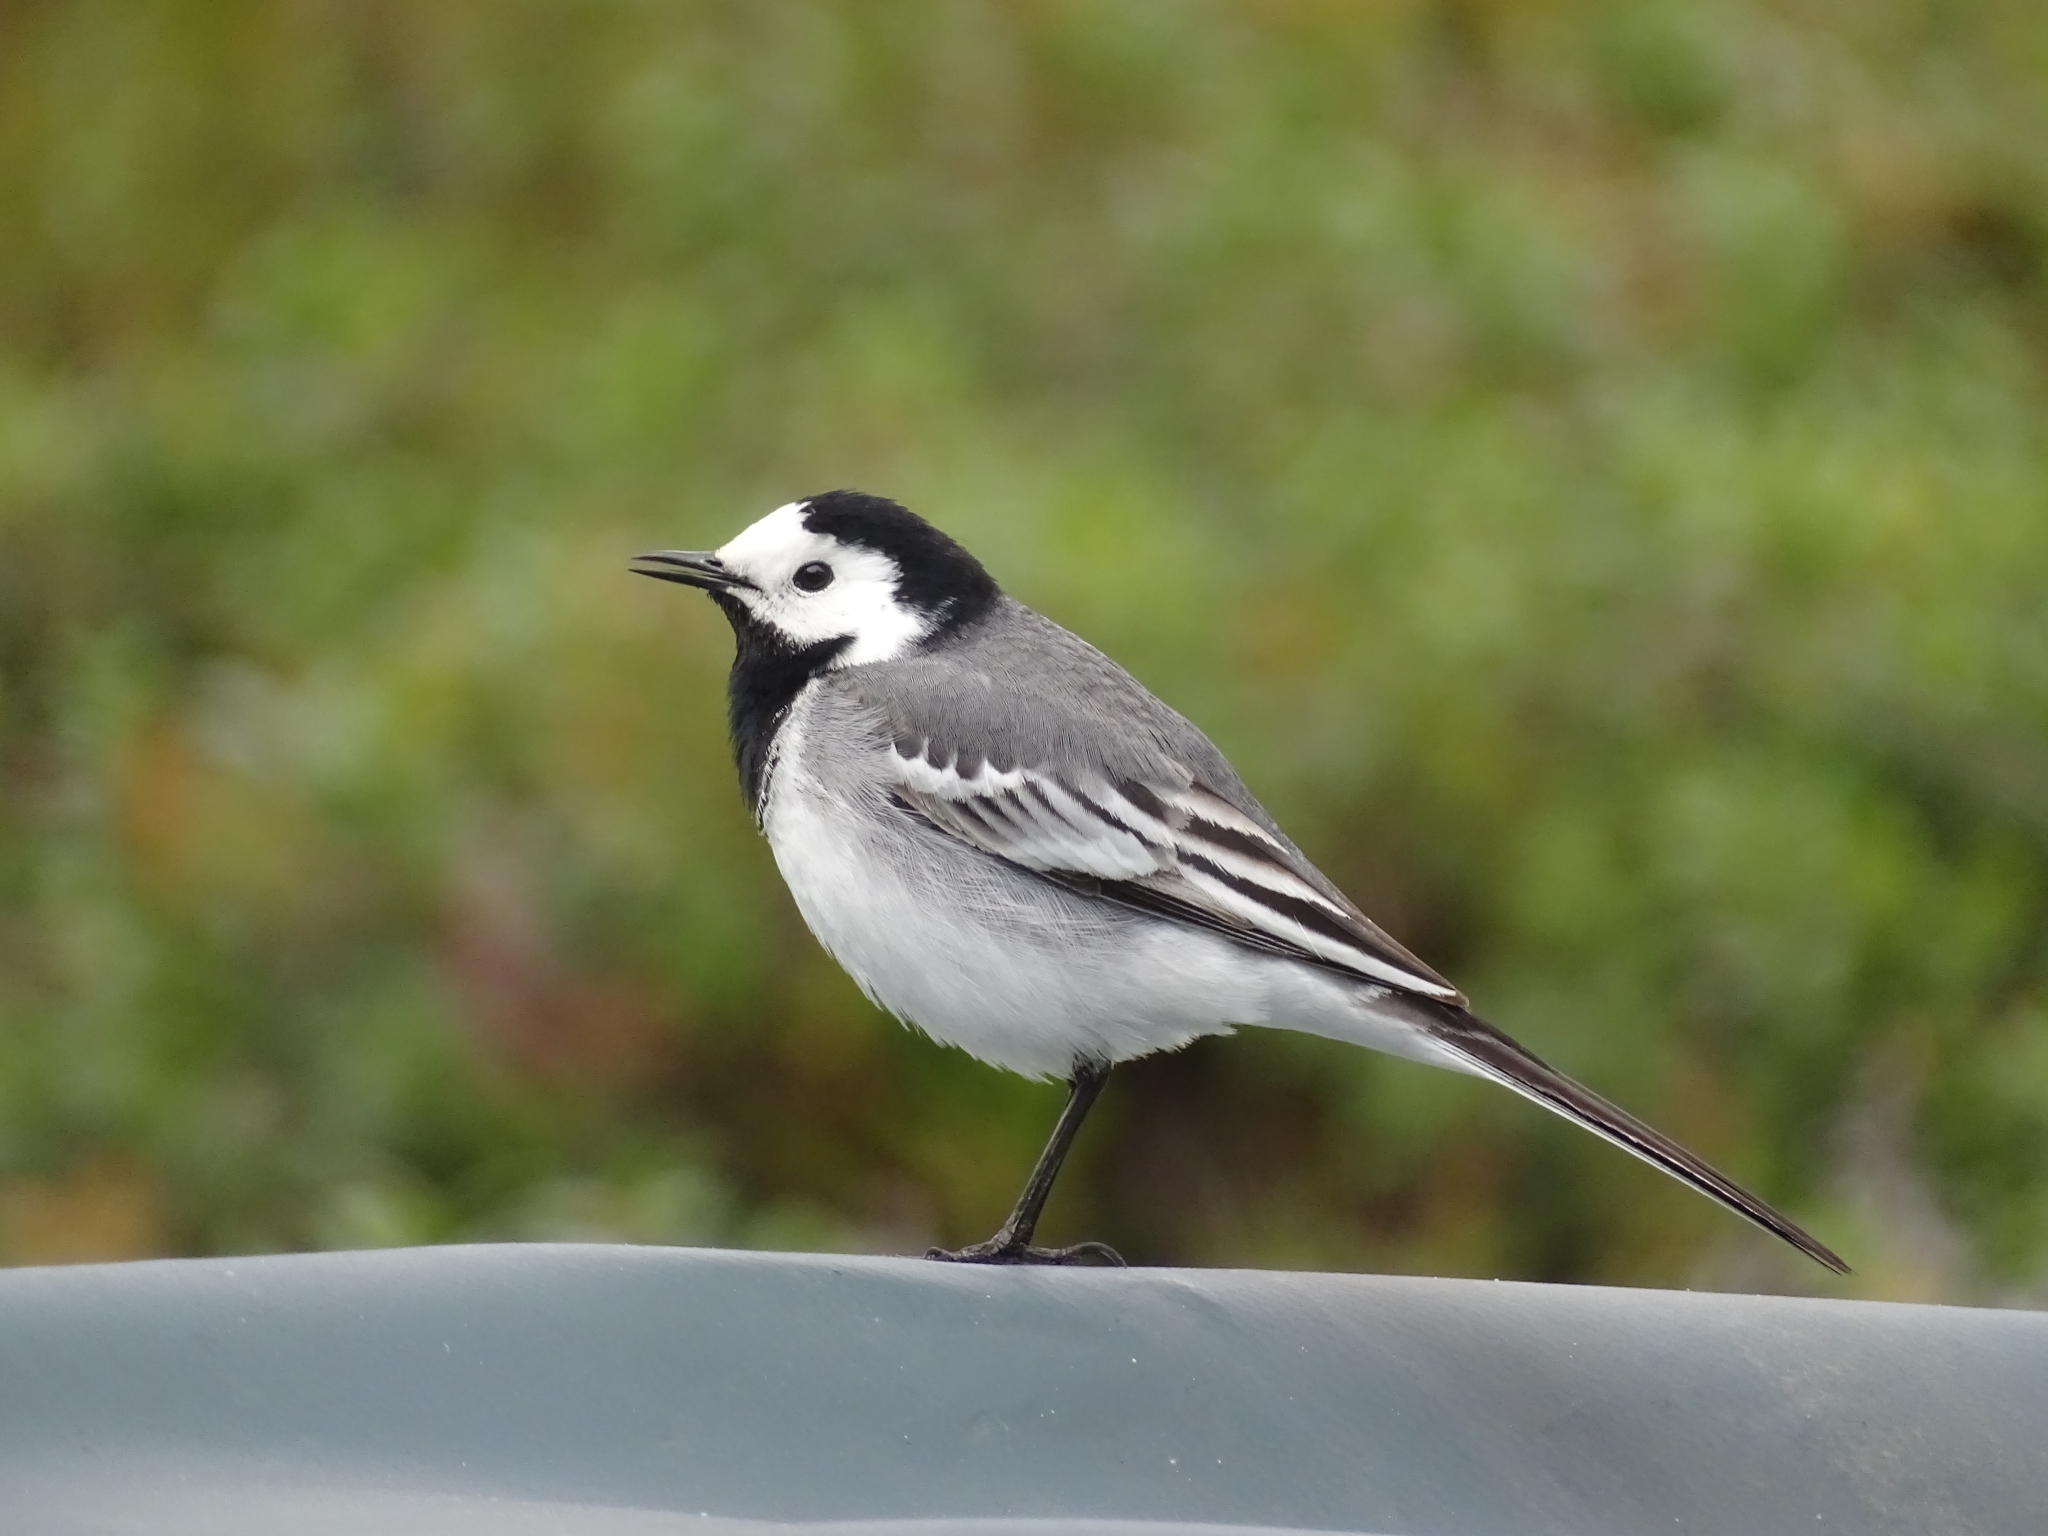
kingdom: Animalia
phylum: Chordata
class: Aves
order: Passeriformes
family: Motacillidae
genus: Motacilla
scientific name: Motacilla alba
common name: White wagtail
